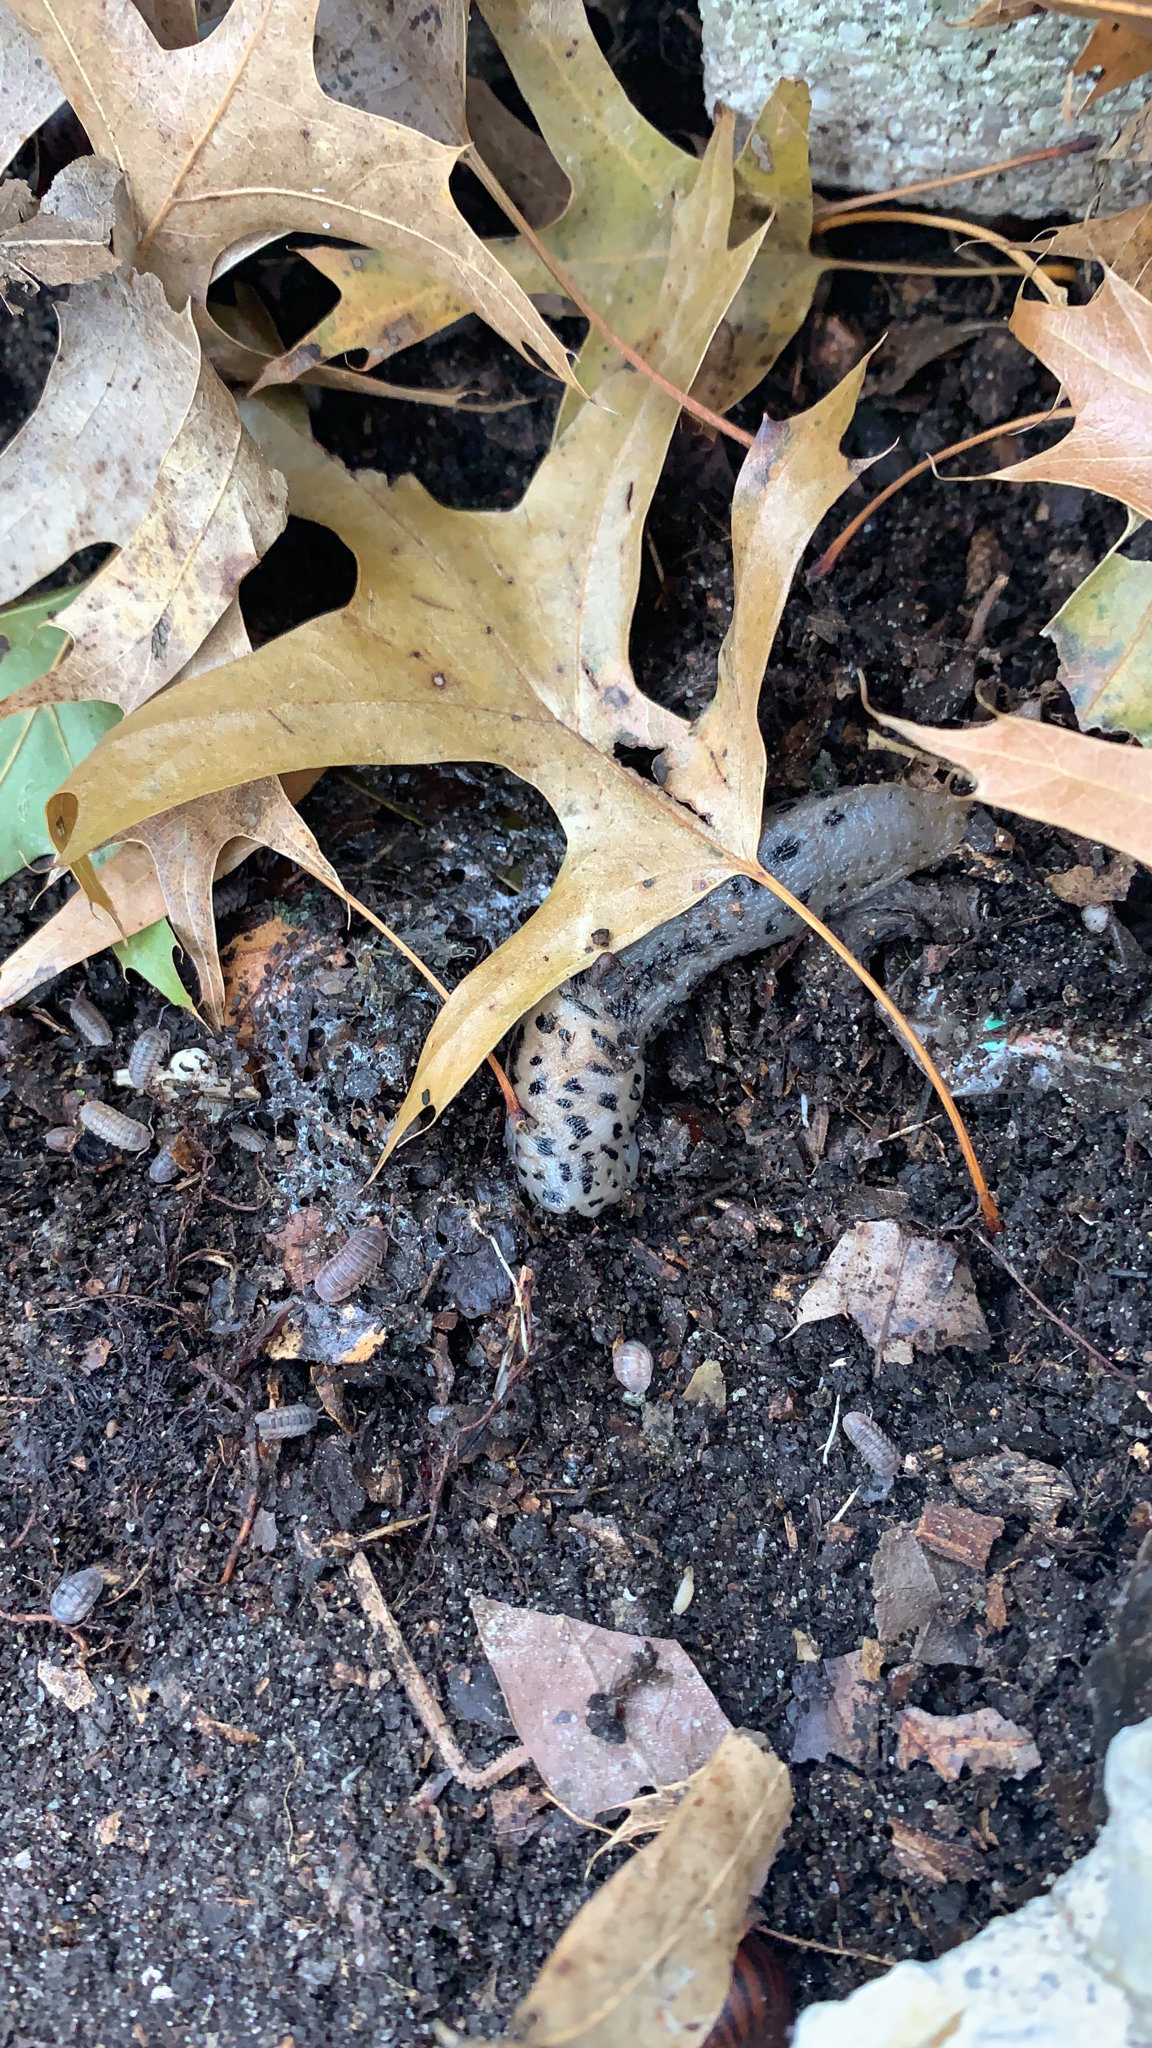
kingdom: Animalia
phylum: Mollusca
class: Gastropoda
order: Stylommatophora
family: Limacidae
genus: Limax
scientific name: Limax maximus
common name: Great grey slug
